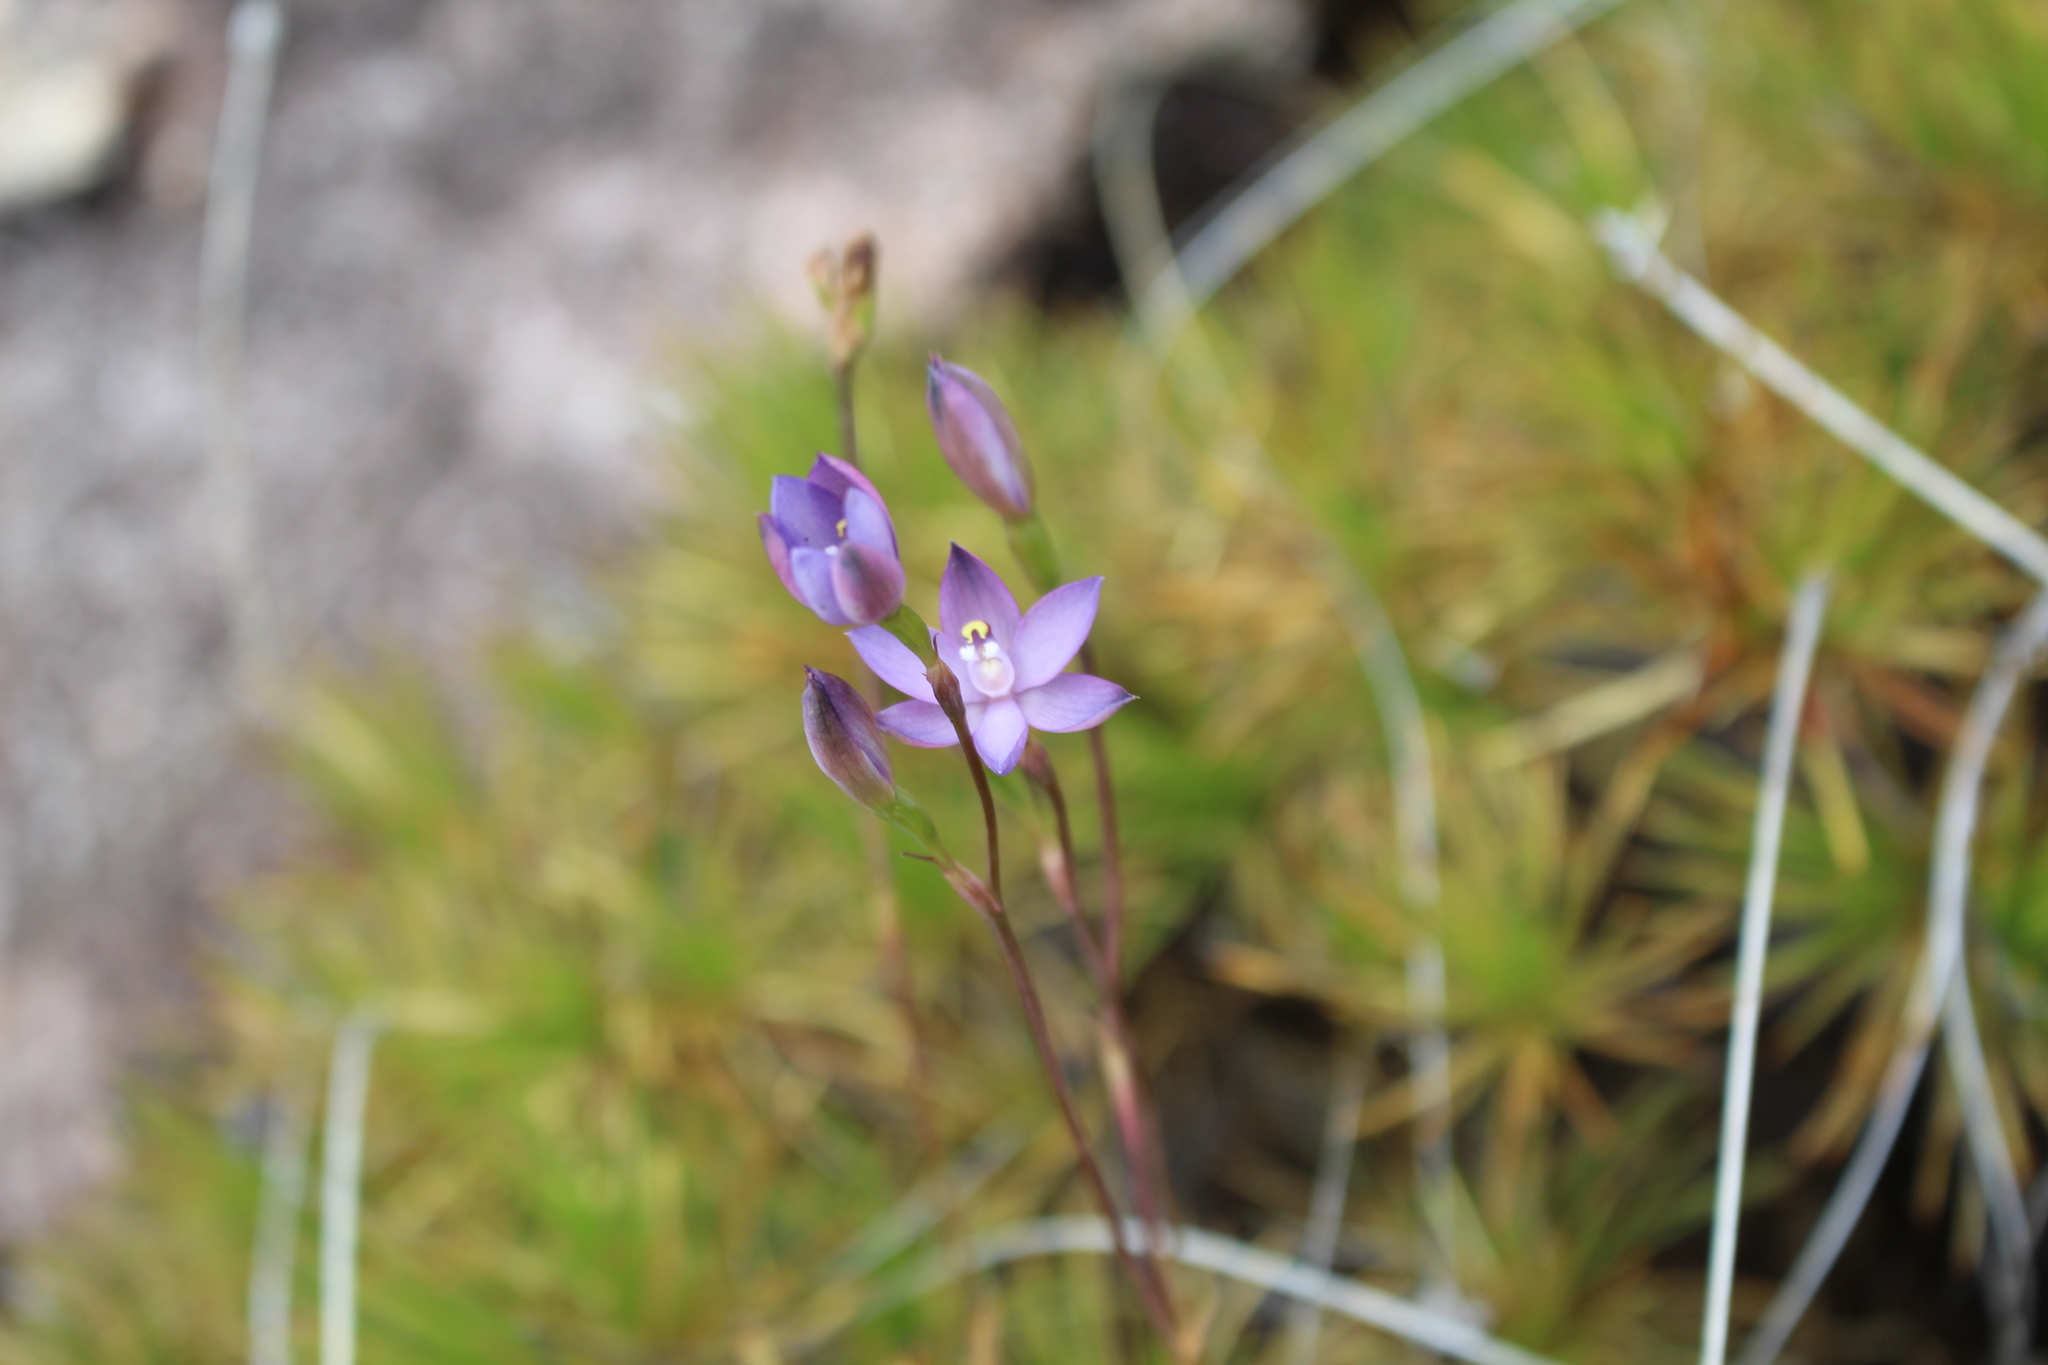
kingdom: Plantae
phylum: Tracheophyta
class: Liliopsida
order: Asparagales
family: Orchidaceae
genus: Thelymitra
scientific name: Thelymitra vulgaris
